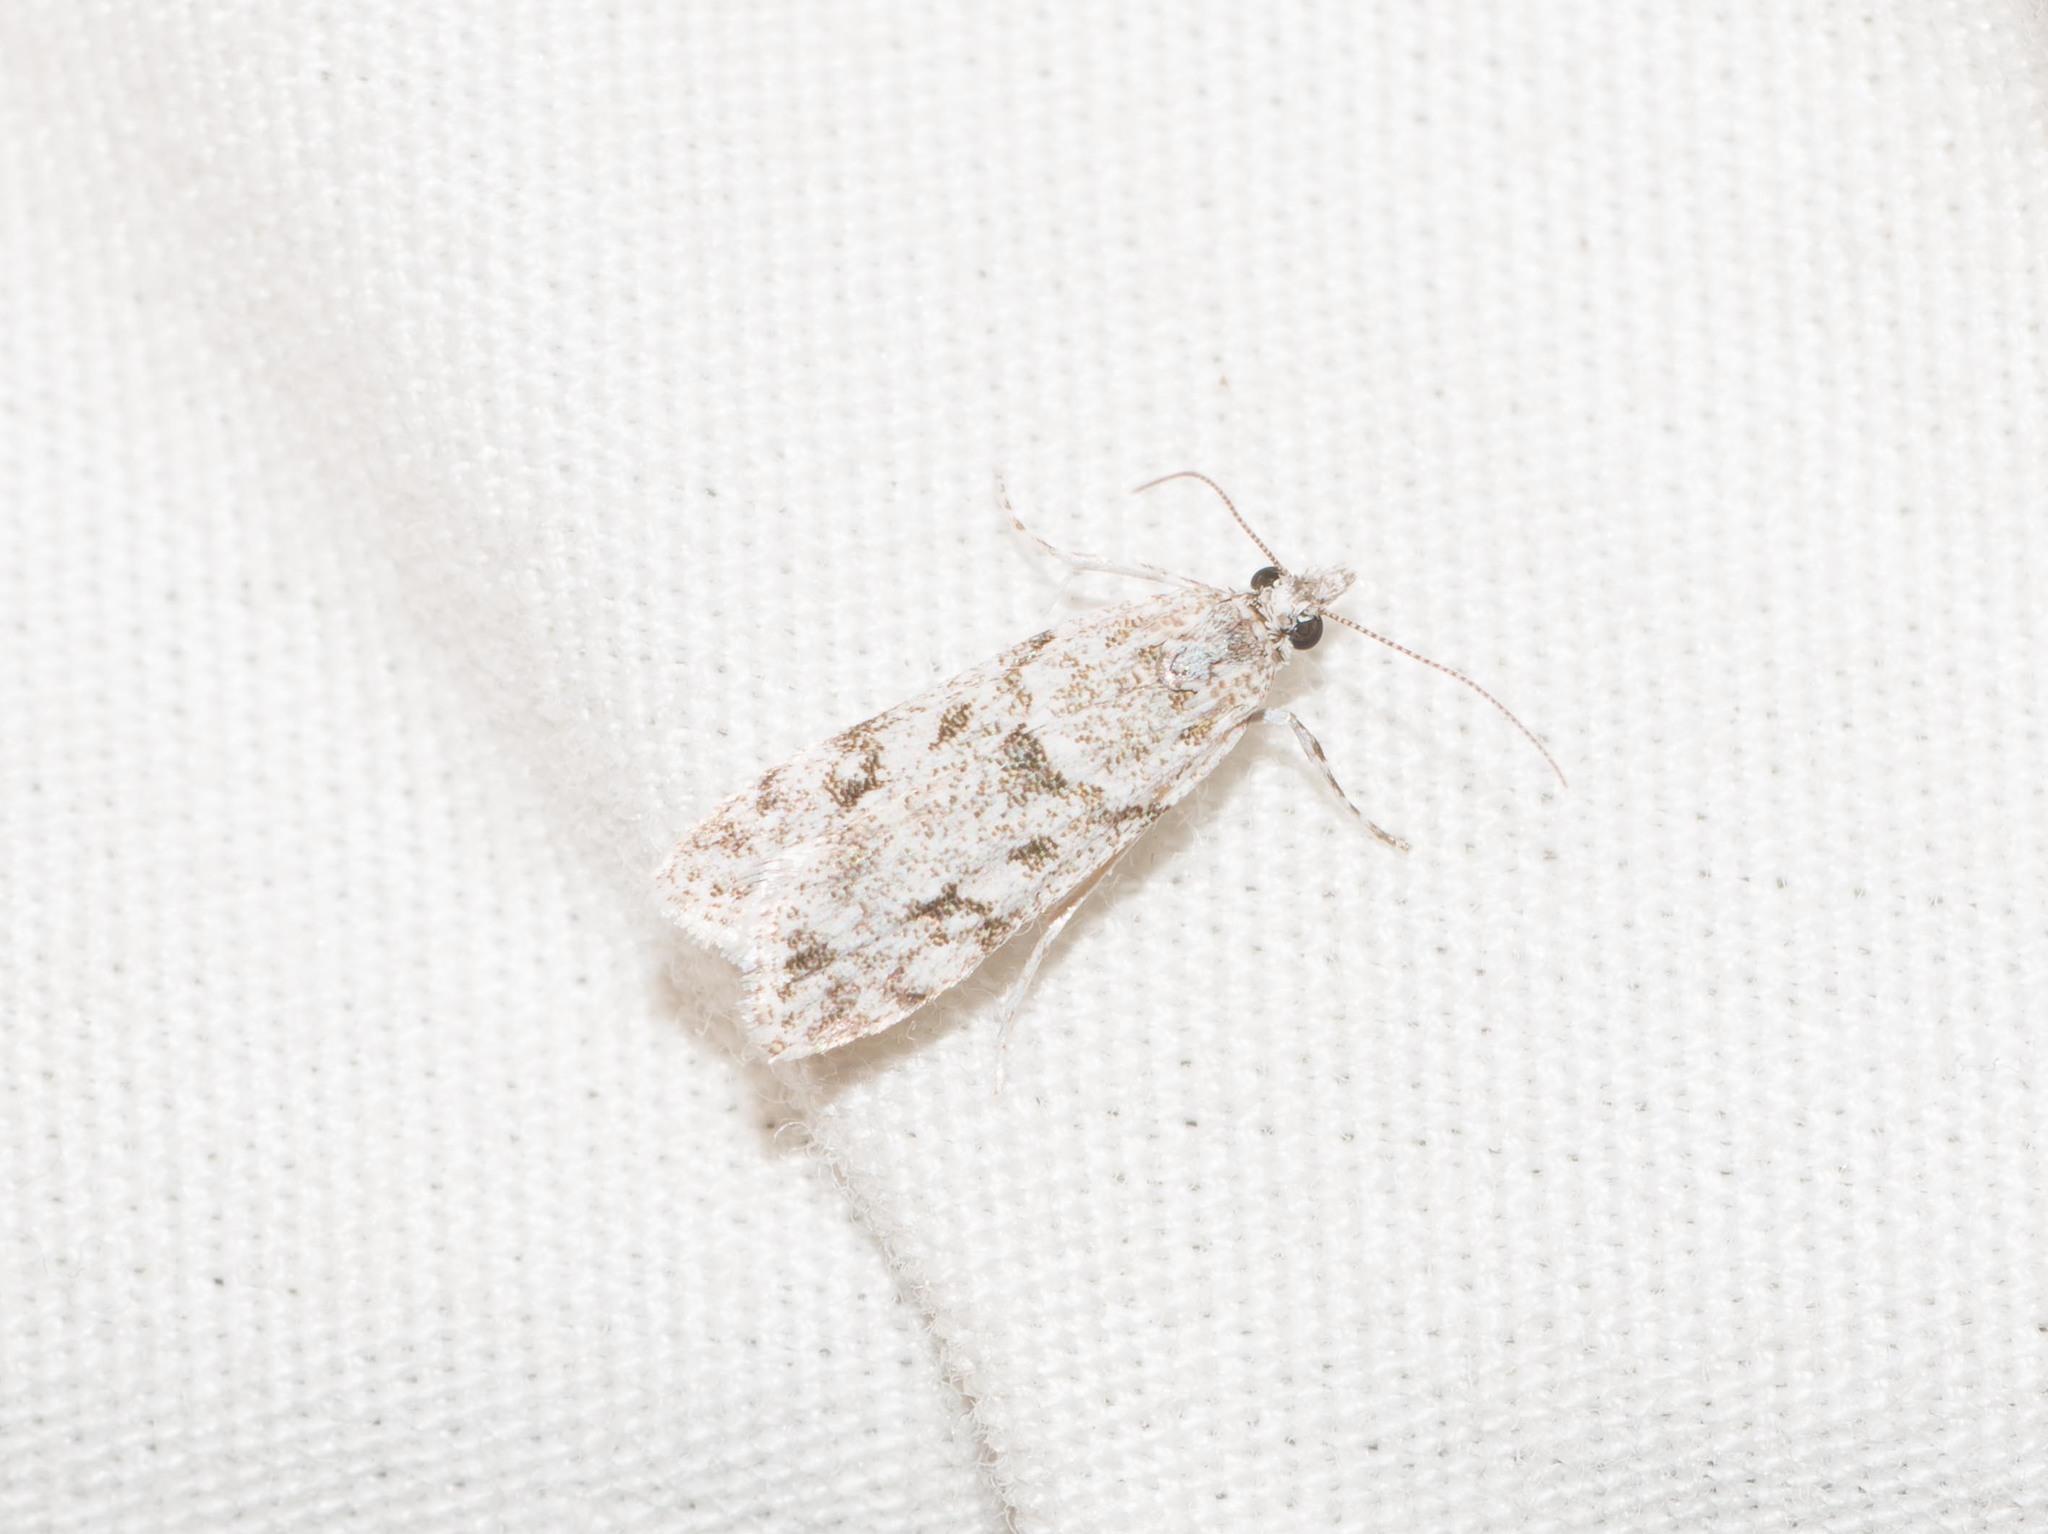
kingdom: Animalia
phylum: Arthropoda
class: Insecta
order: Lepidoptera
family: Crambidae
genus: Eudonia
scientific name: Eudonia geraea
